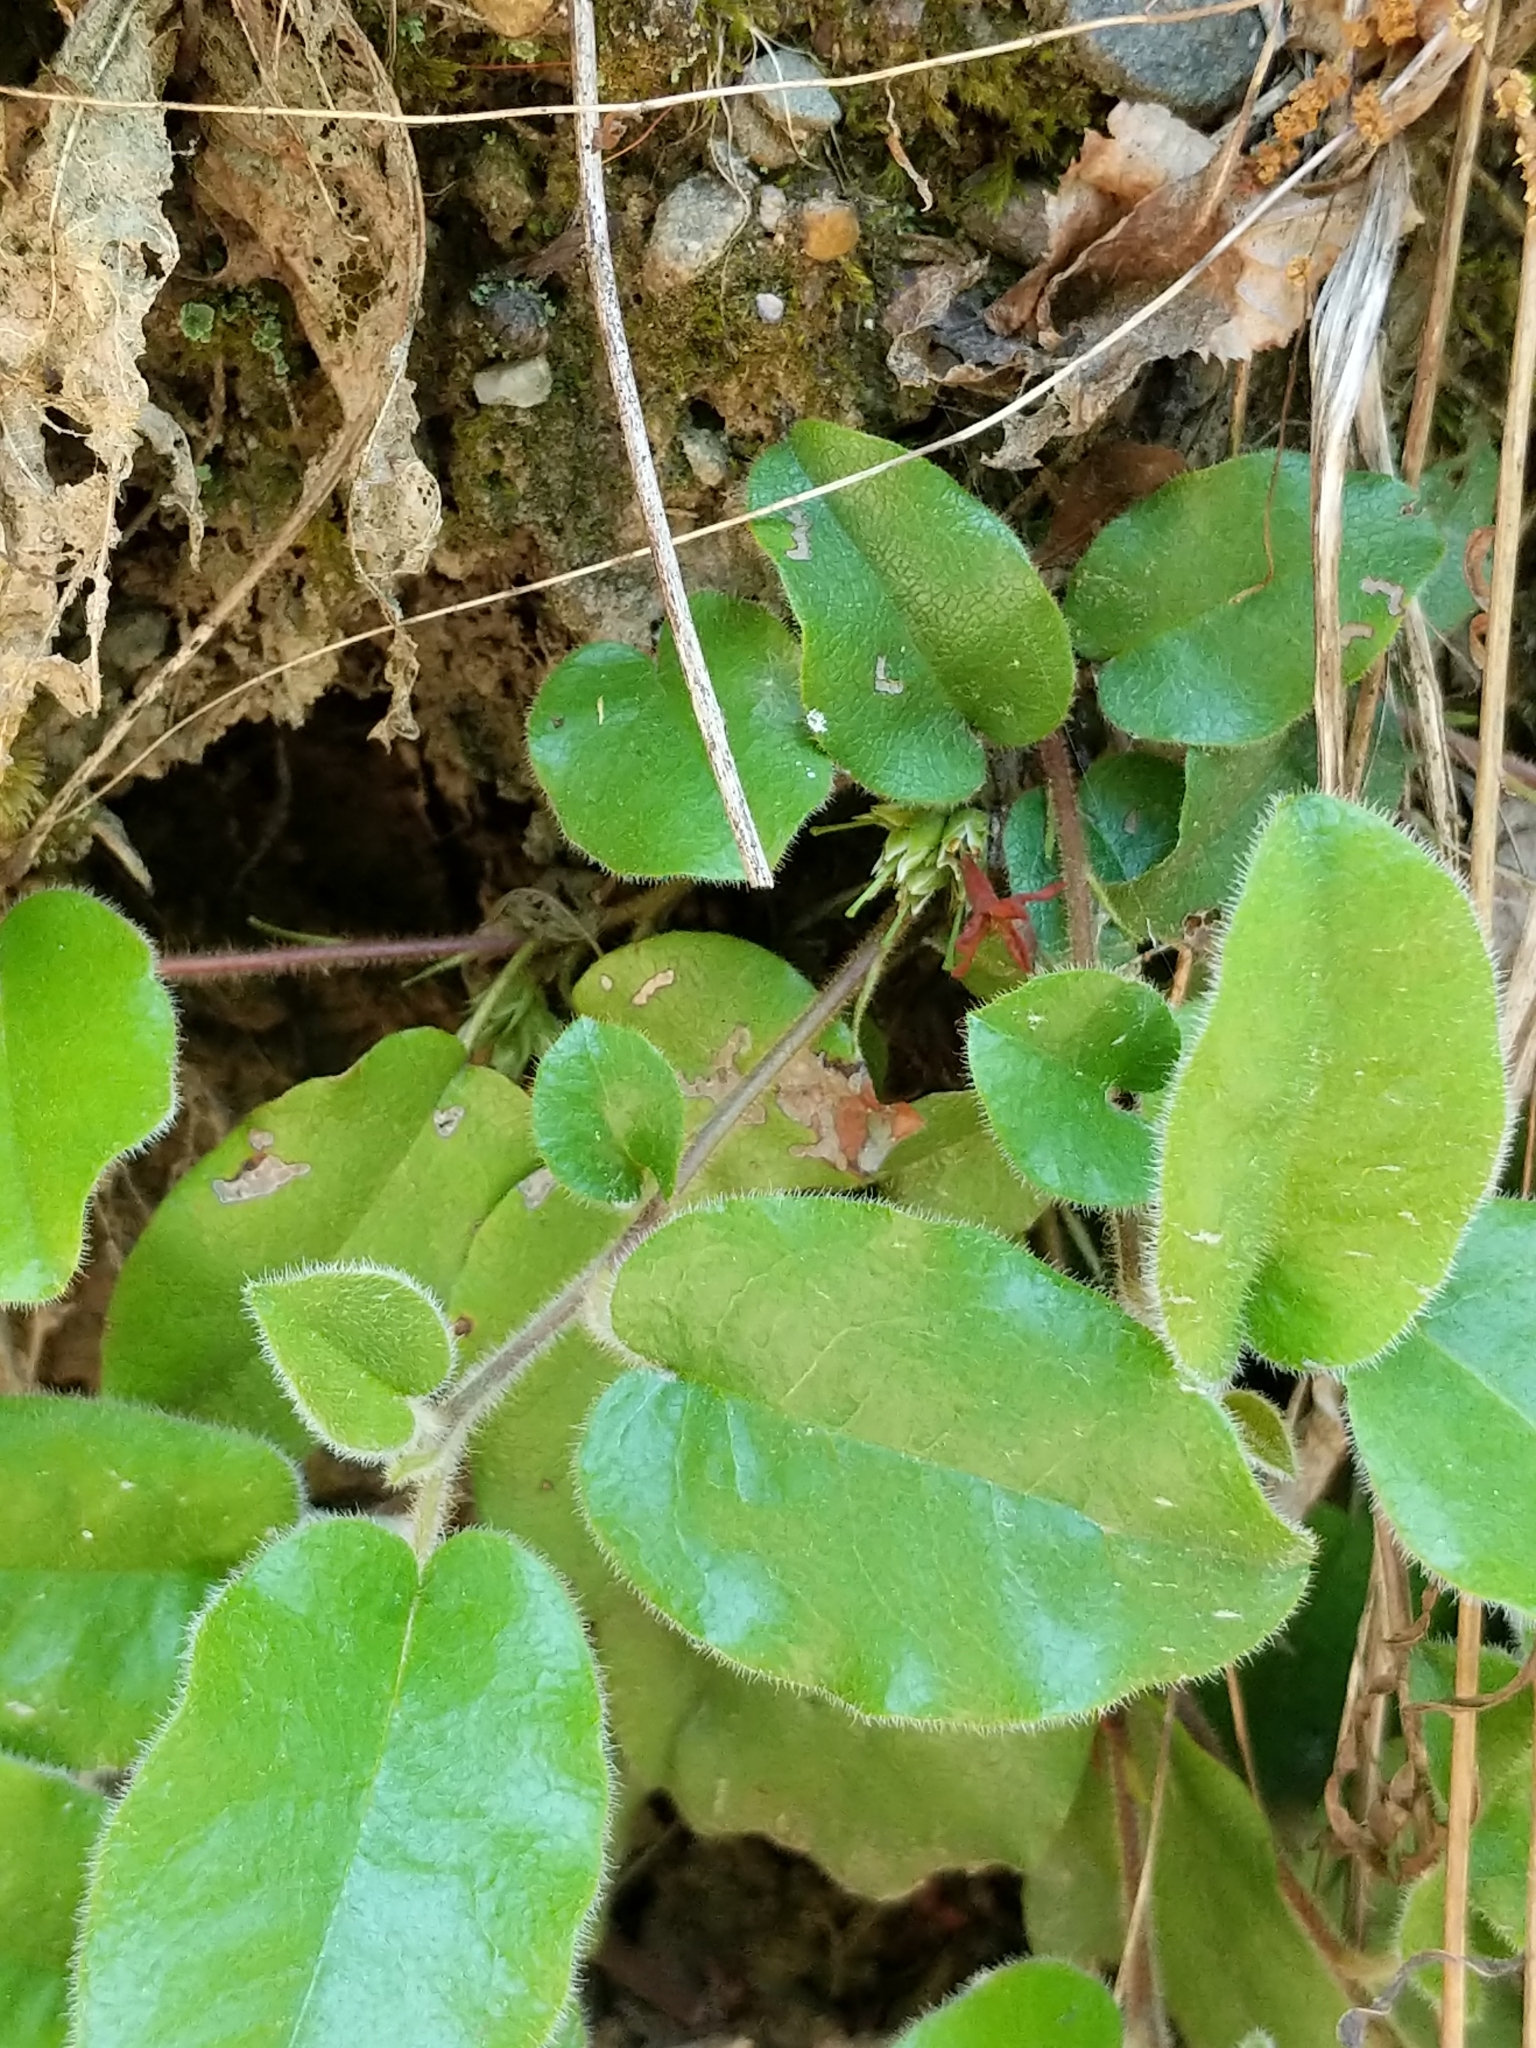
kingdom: Plantae
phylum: Tracheophyta
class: Magnoliopsida
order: Ericales
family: Ericaceae
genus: Epigaea
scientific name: Epigaea repens
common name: Gravelroot
